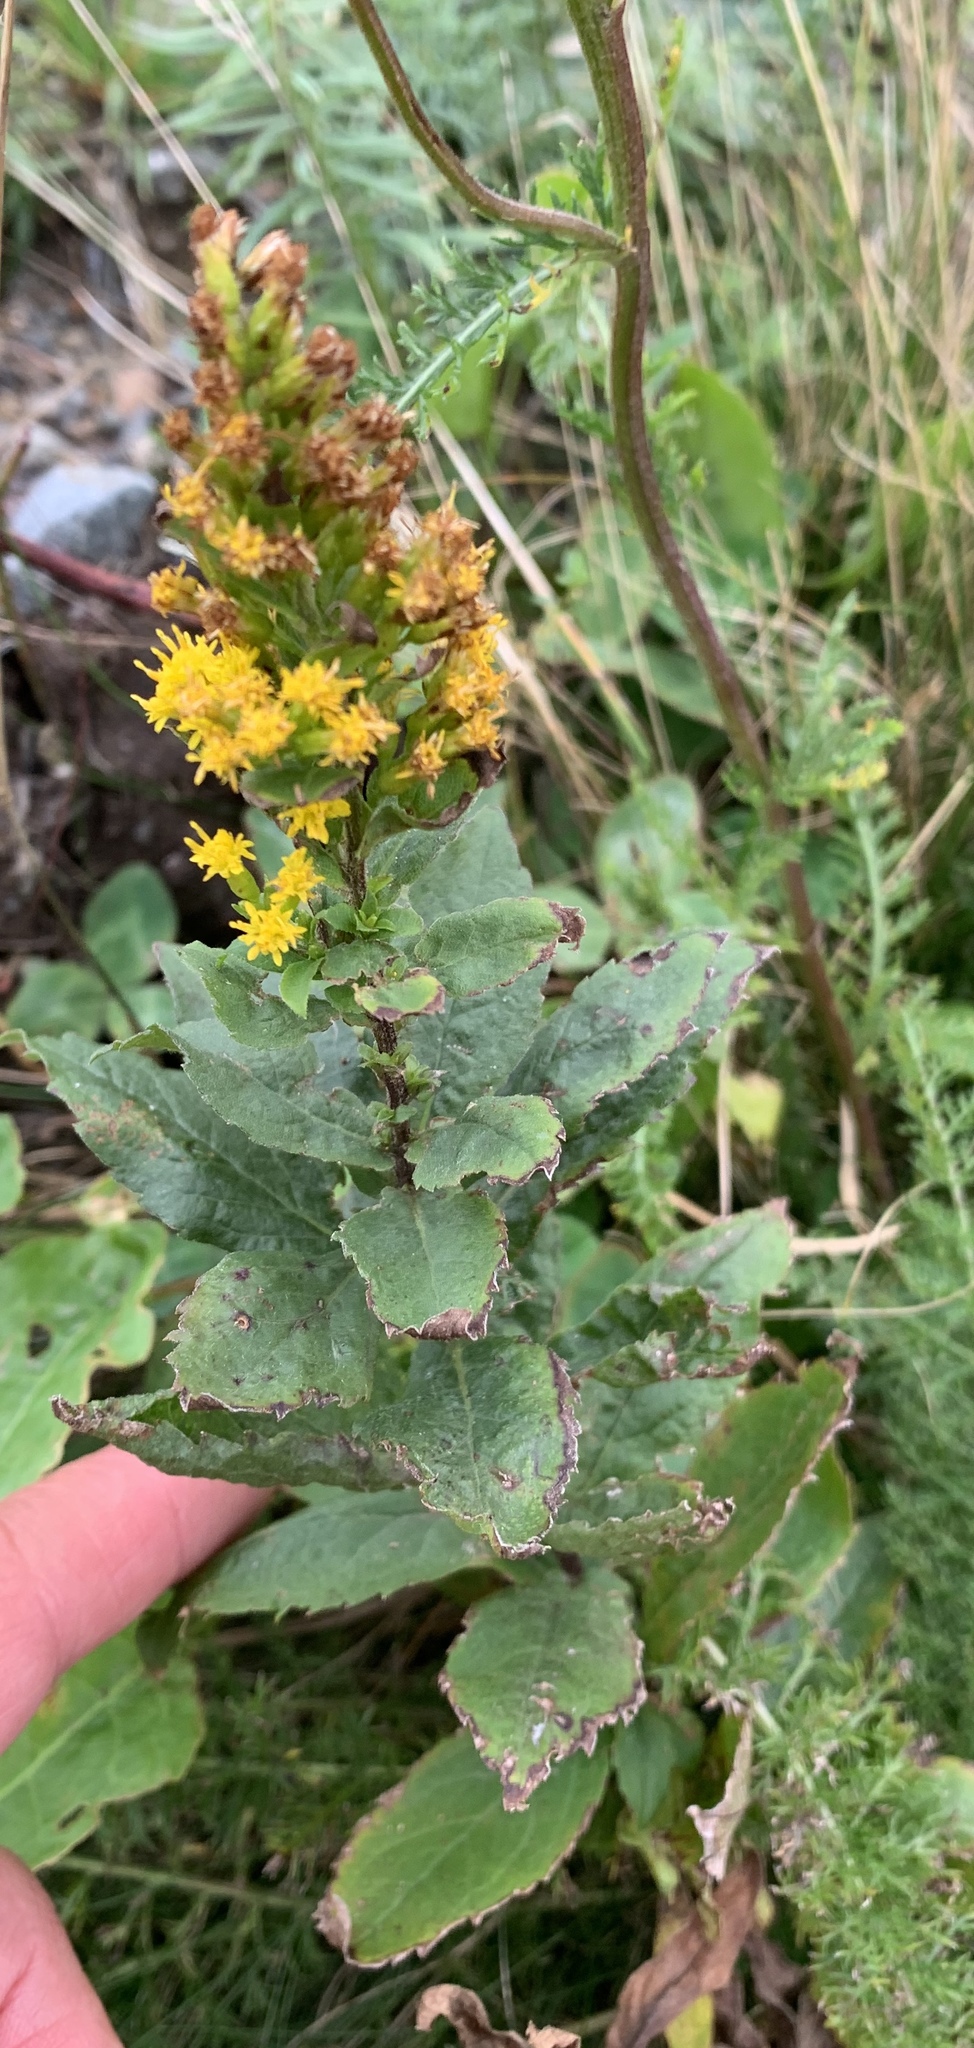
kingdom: Plantae
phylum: Tracheophyta
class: Magnoliopsida
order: Asterales
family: Asteraceae
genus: Solidago
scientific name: Solidago rugosa
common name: Rough-stemmed goldenrod
